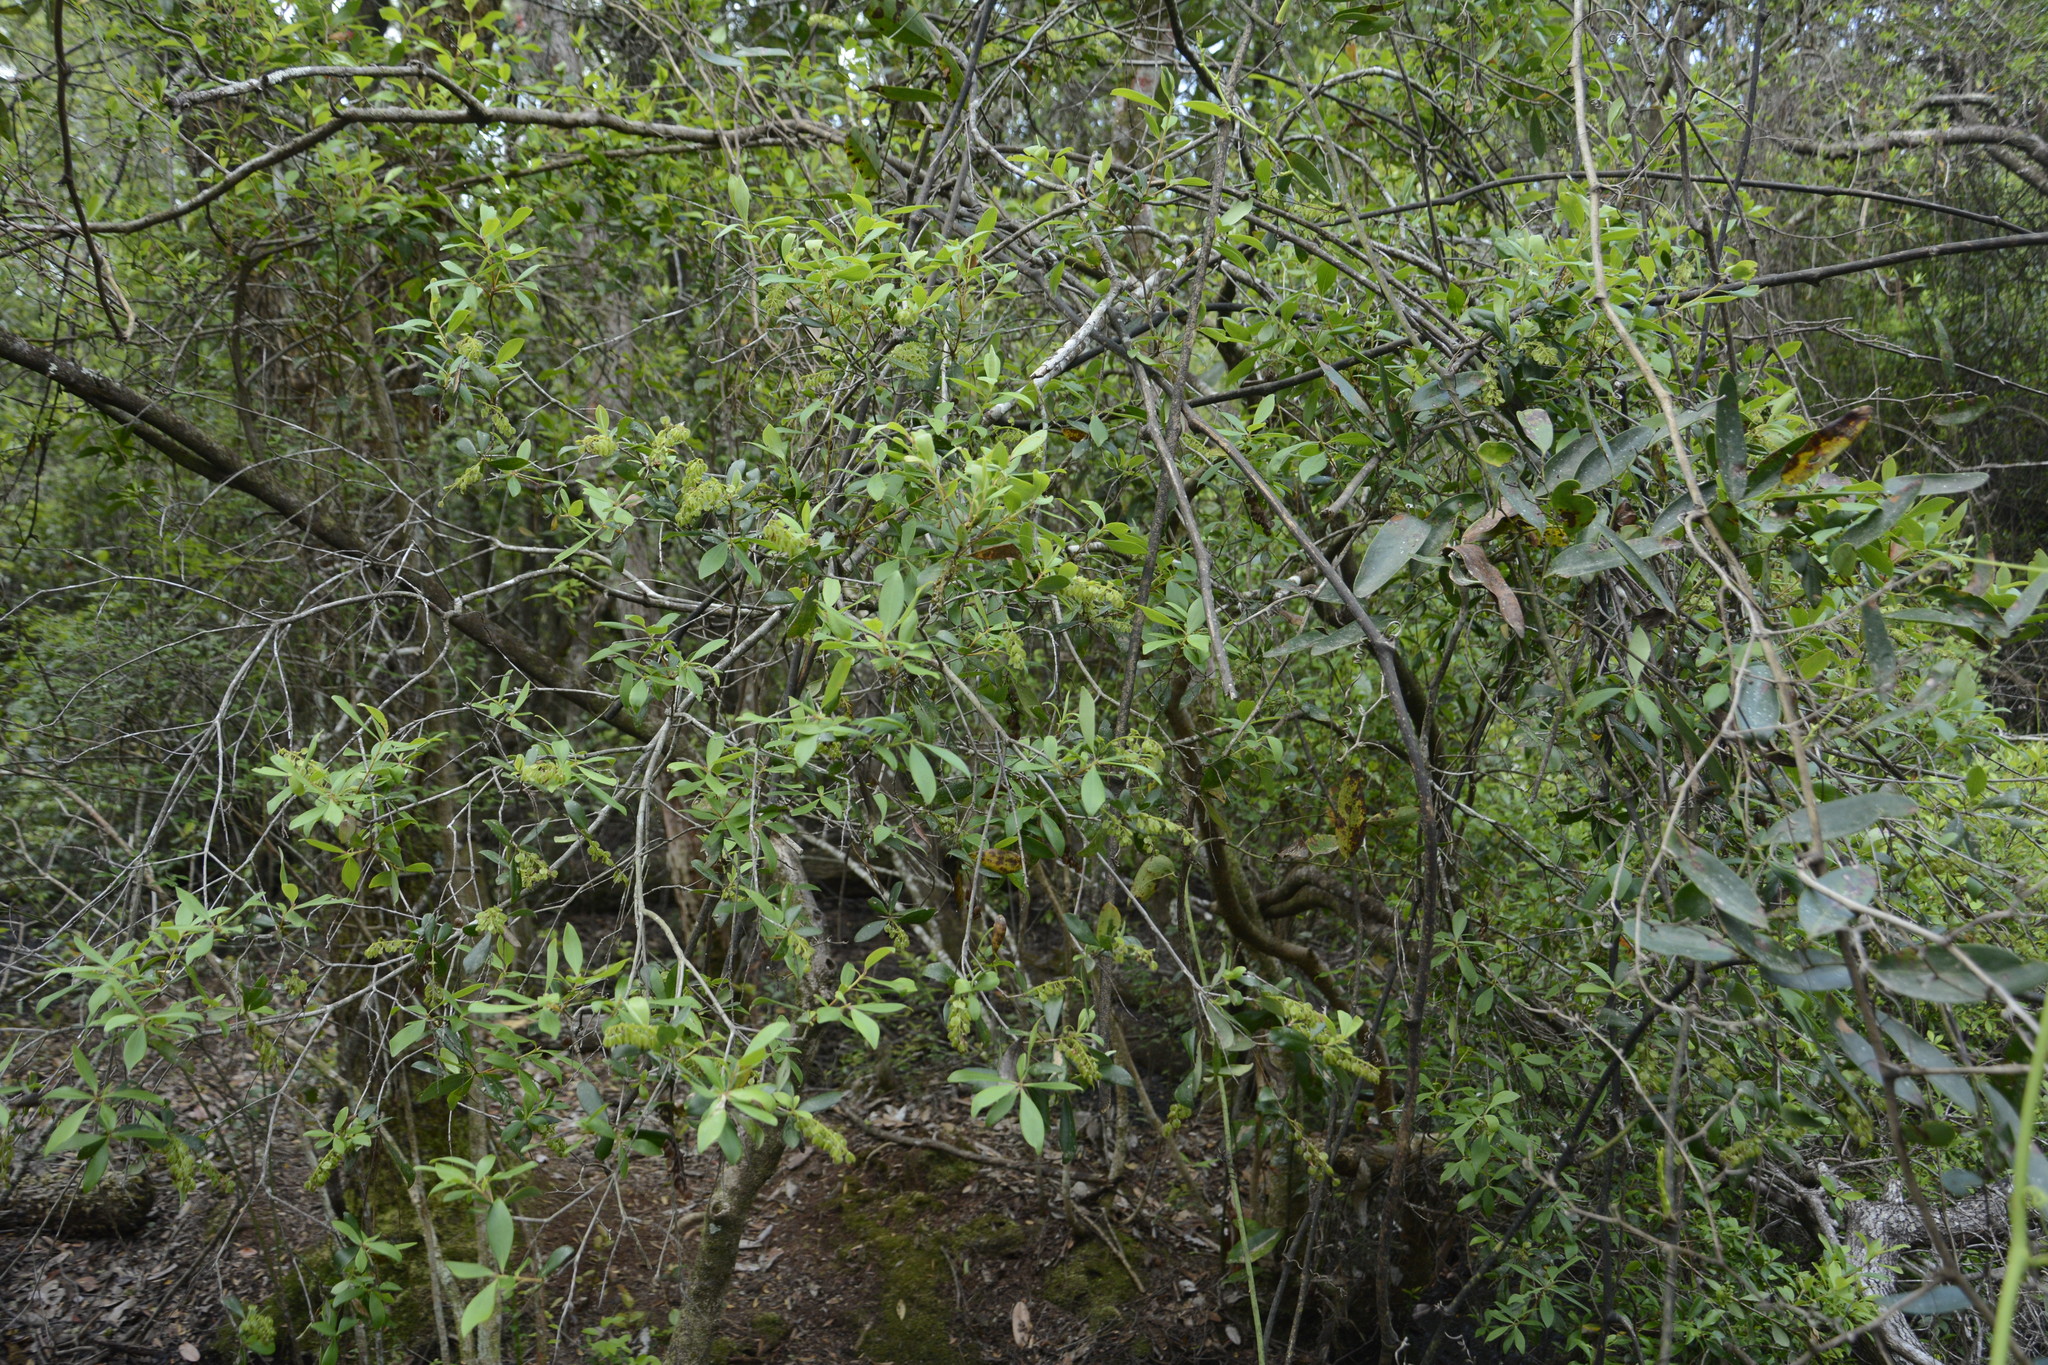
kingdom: Plantae
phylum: Tracheophyta
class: Magnoliopsida
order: Ericales
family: Cyrillaceae
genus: Cliftonia
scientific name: Cliftonia monophylla
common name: Titi
